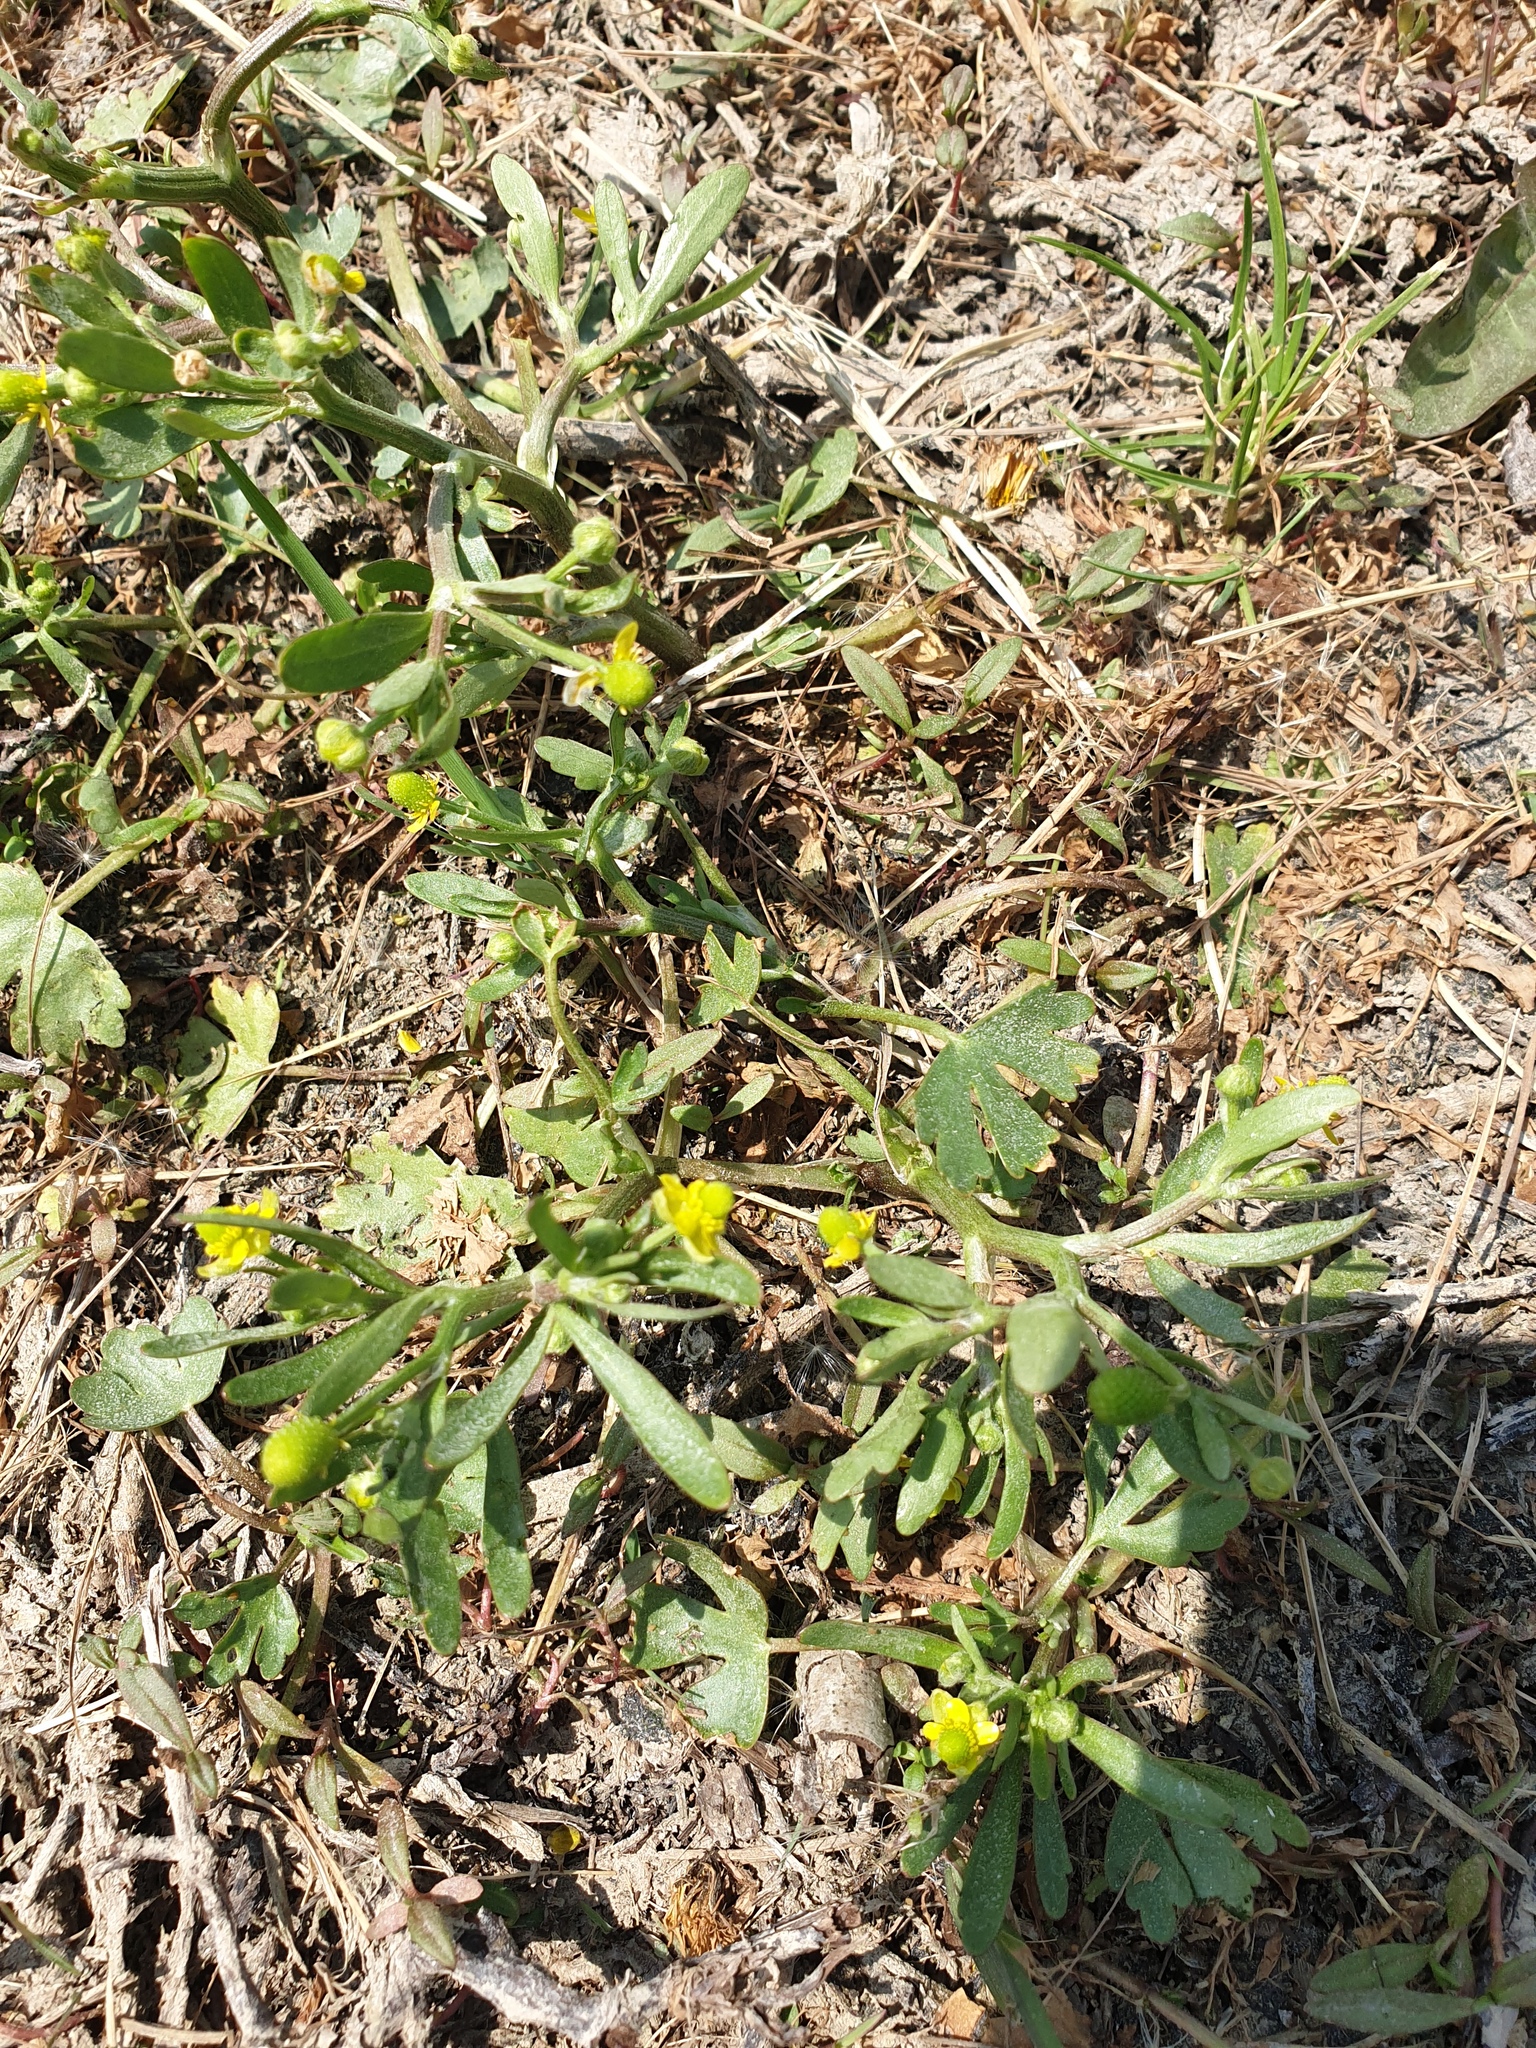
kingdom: Plantae
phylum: Tracheophyta
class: Magnoliopsida
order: Ranunculales
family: Ranunculaceae
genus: Ranunculus
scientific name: Ranunculus sceleratus
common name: Celery-leaved buttercup
